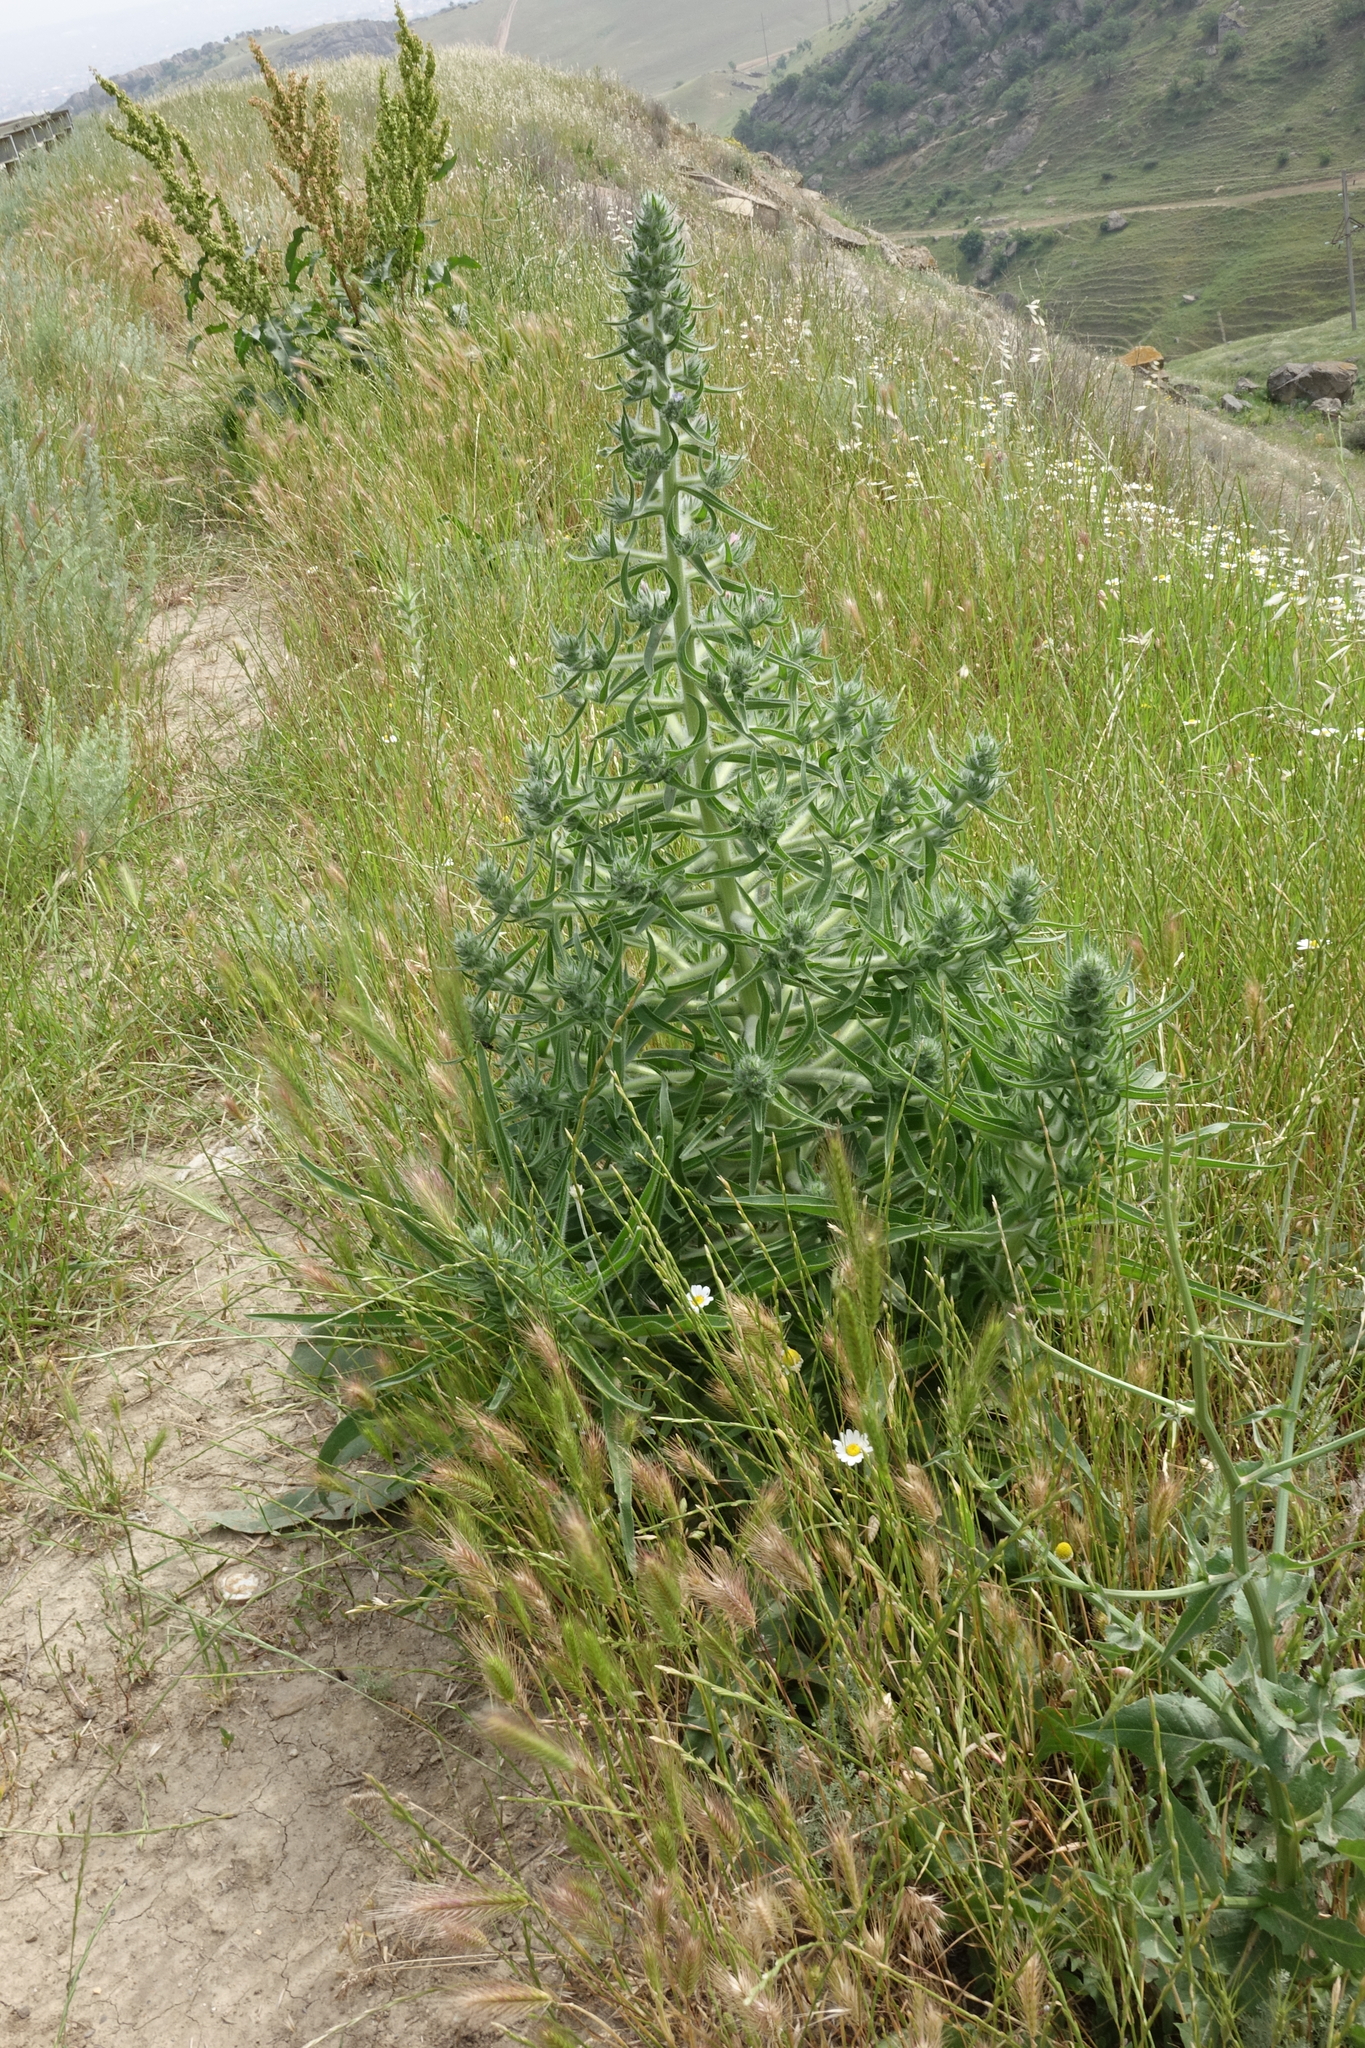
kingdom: Plantae
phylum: Tracheophyta
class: Magnoliopsida
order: Boraginales
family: Boraginaceae
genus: Echium
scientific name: Echium italicum
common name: Italian viper's bugloss
